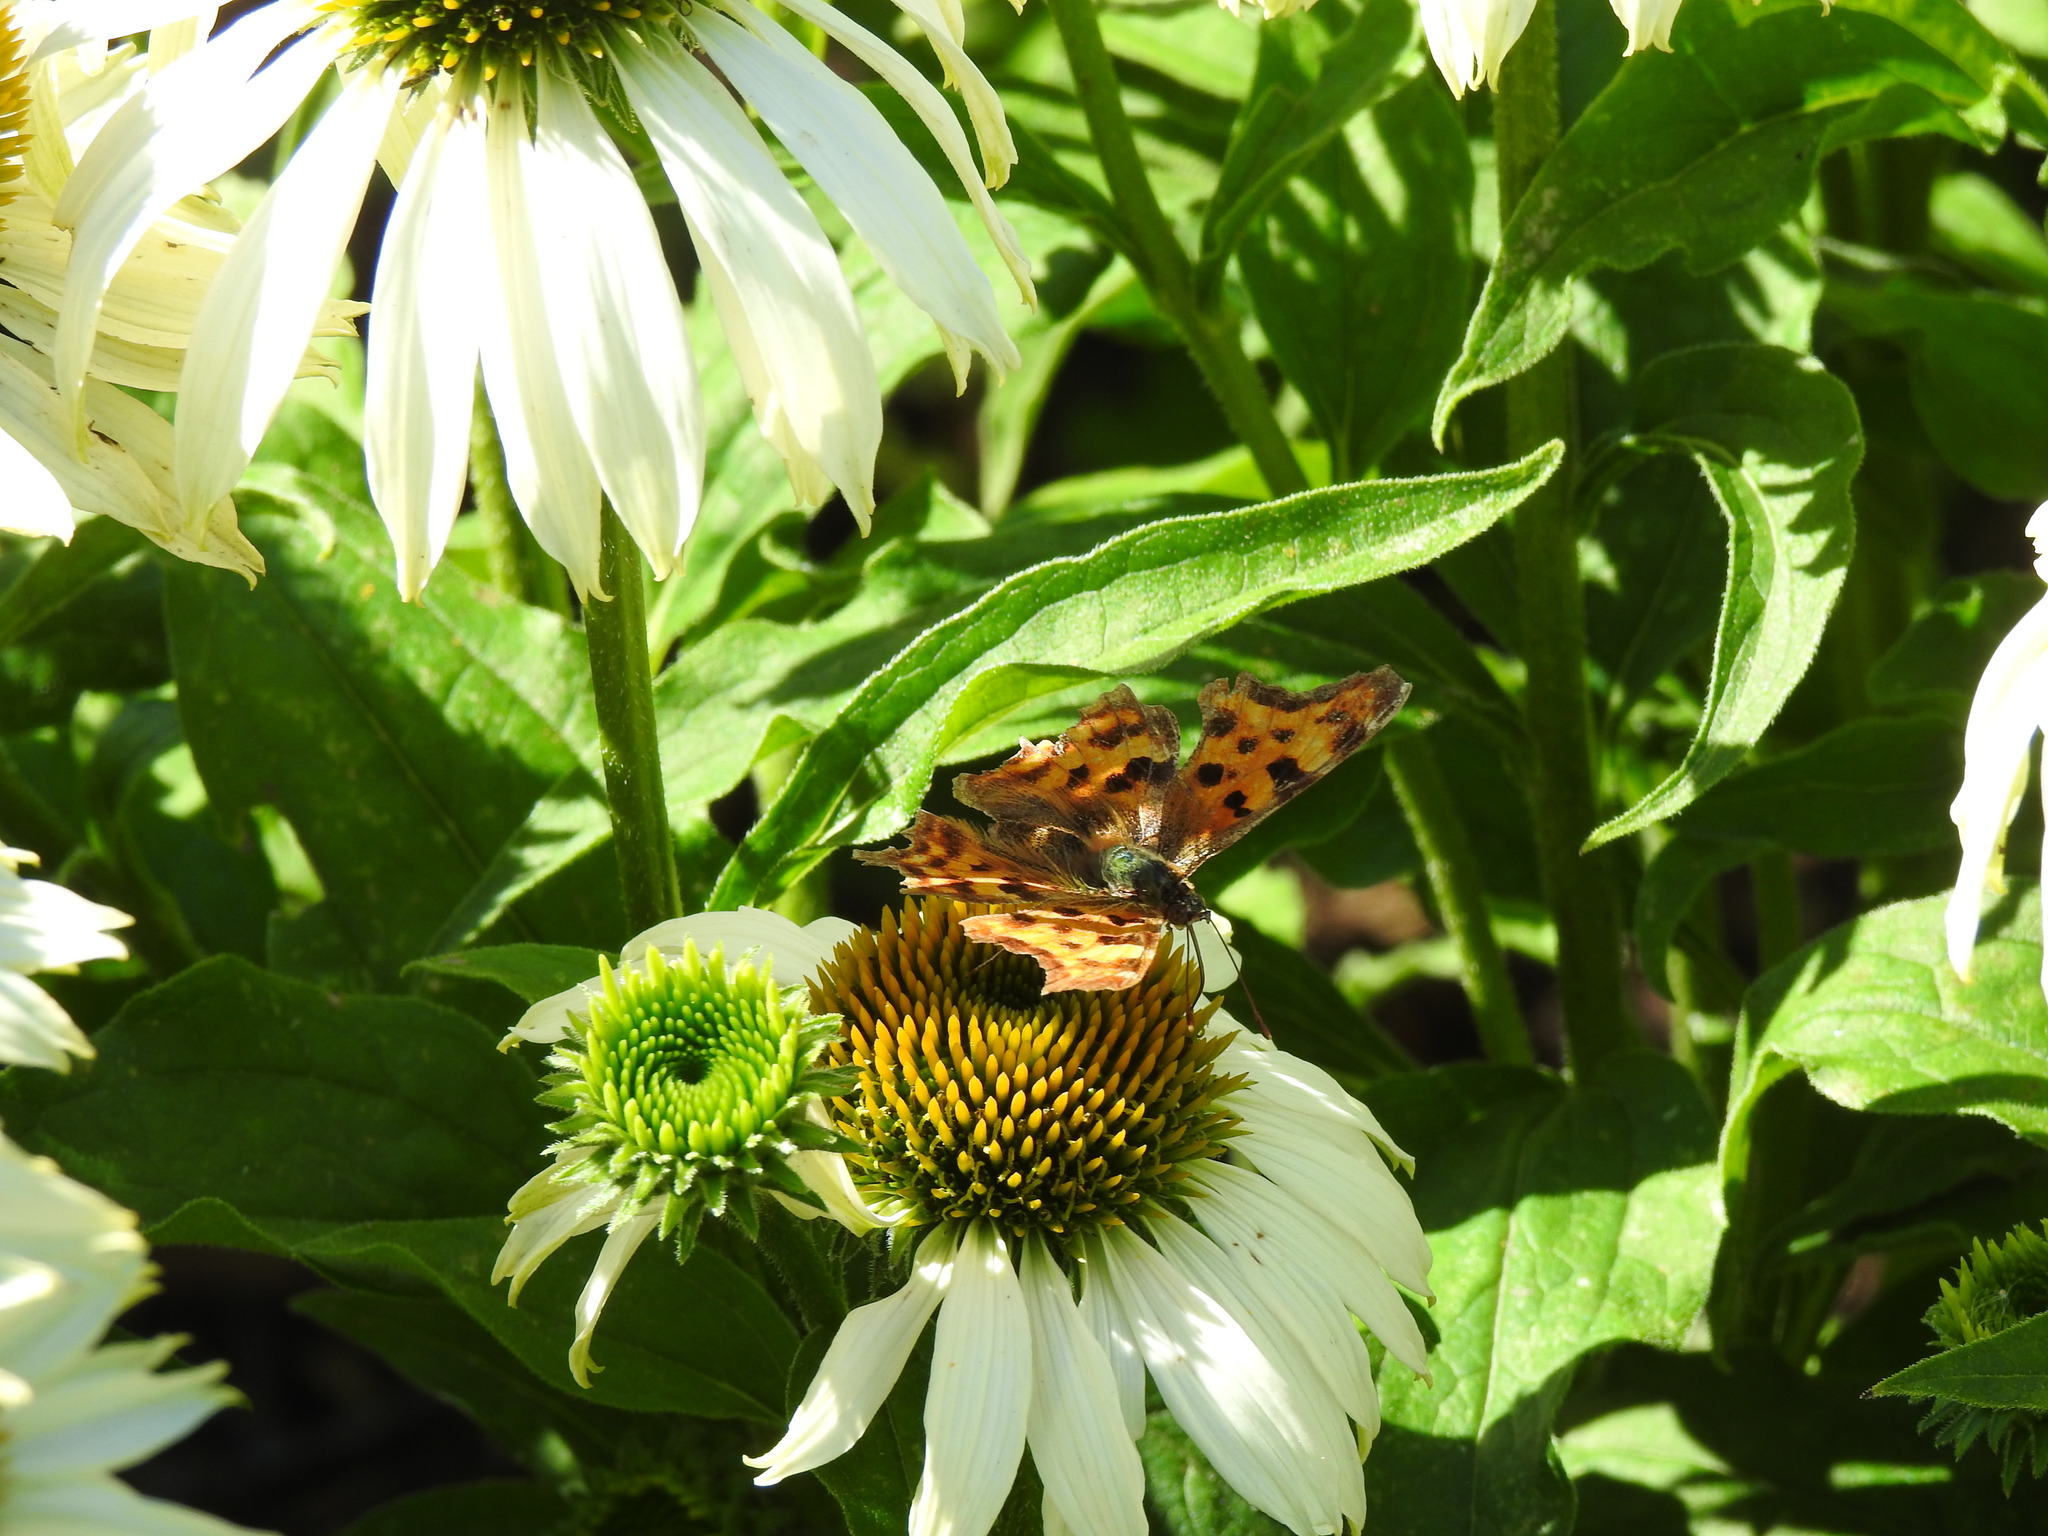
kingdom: Animalia
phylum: Arthropoda
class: Insecta
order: Lepidoptera
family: Nymphalidae
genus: Polygonia
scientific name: Polygonia c-album
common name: Comma
